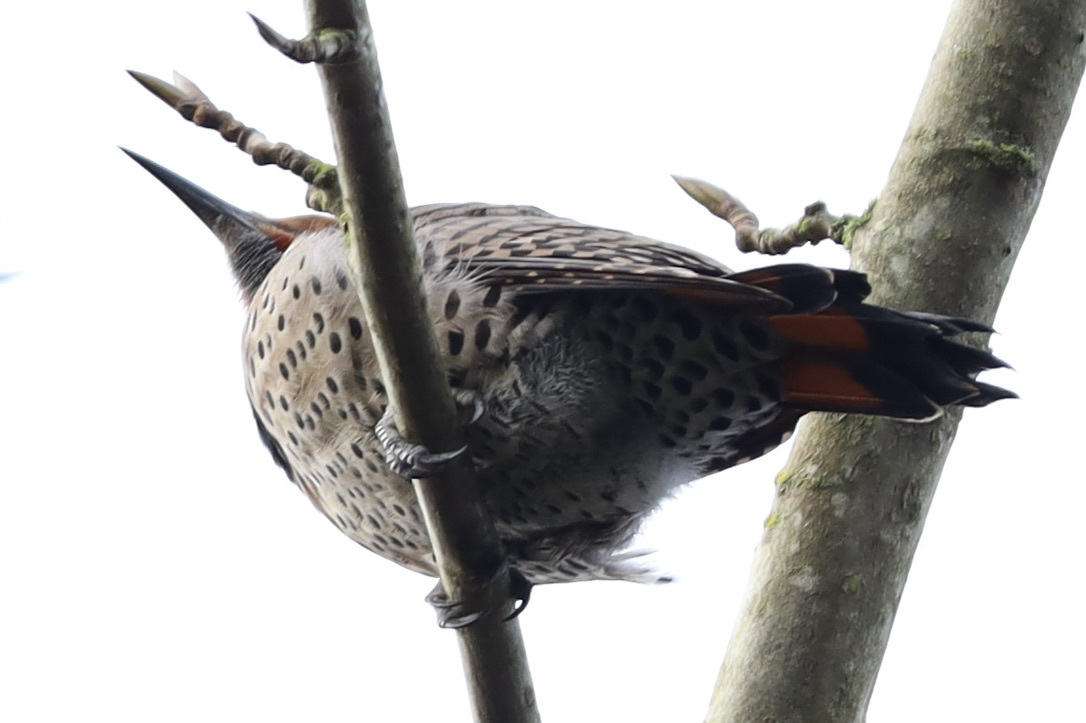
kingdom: Animalia
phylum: Chordata
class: Aves
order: Piciformes
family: Picidae
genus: Colaptes
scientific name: Colaptes auratus
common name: Northern flicker
